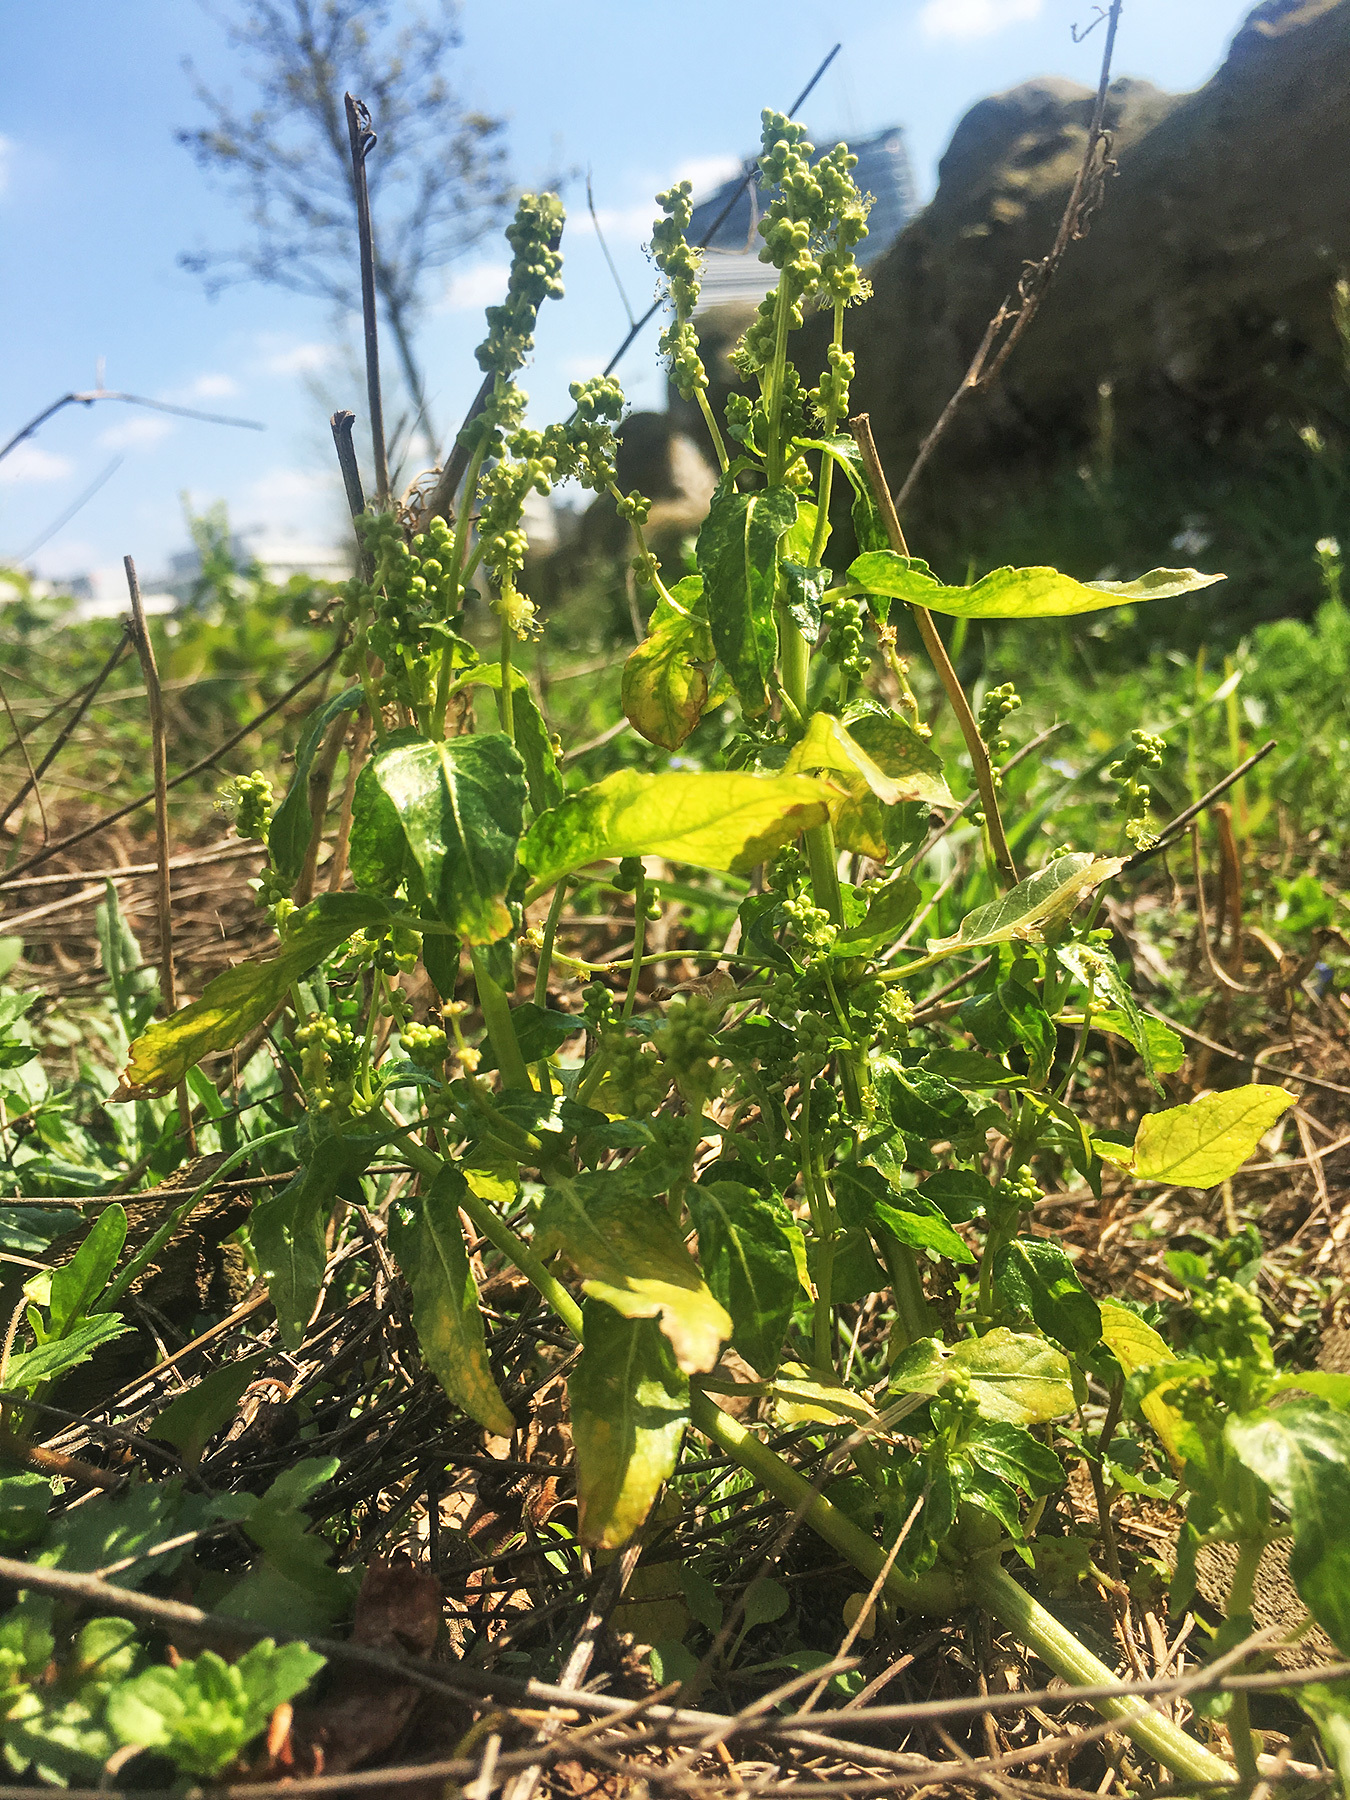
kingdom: Plantae
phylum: Tracheophyta
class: Magnoliopsida
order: Malpighiales
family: Euphorbiaceae
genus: Mercurialis
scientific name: Mercurialis annua
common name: Annual mercury
